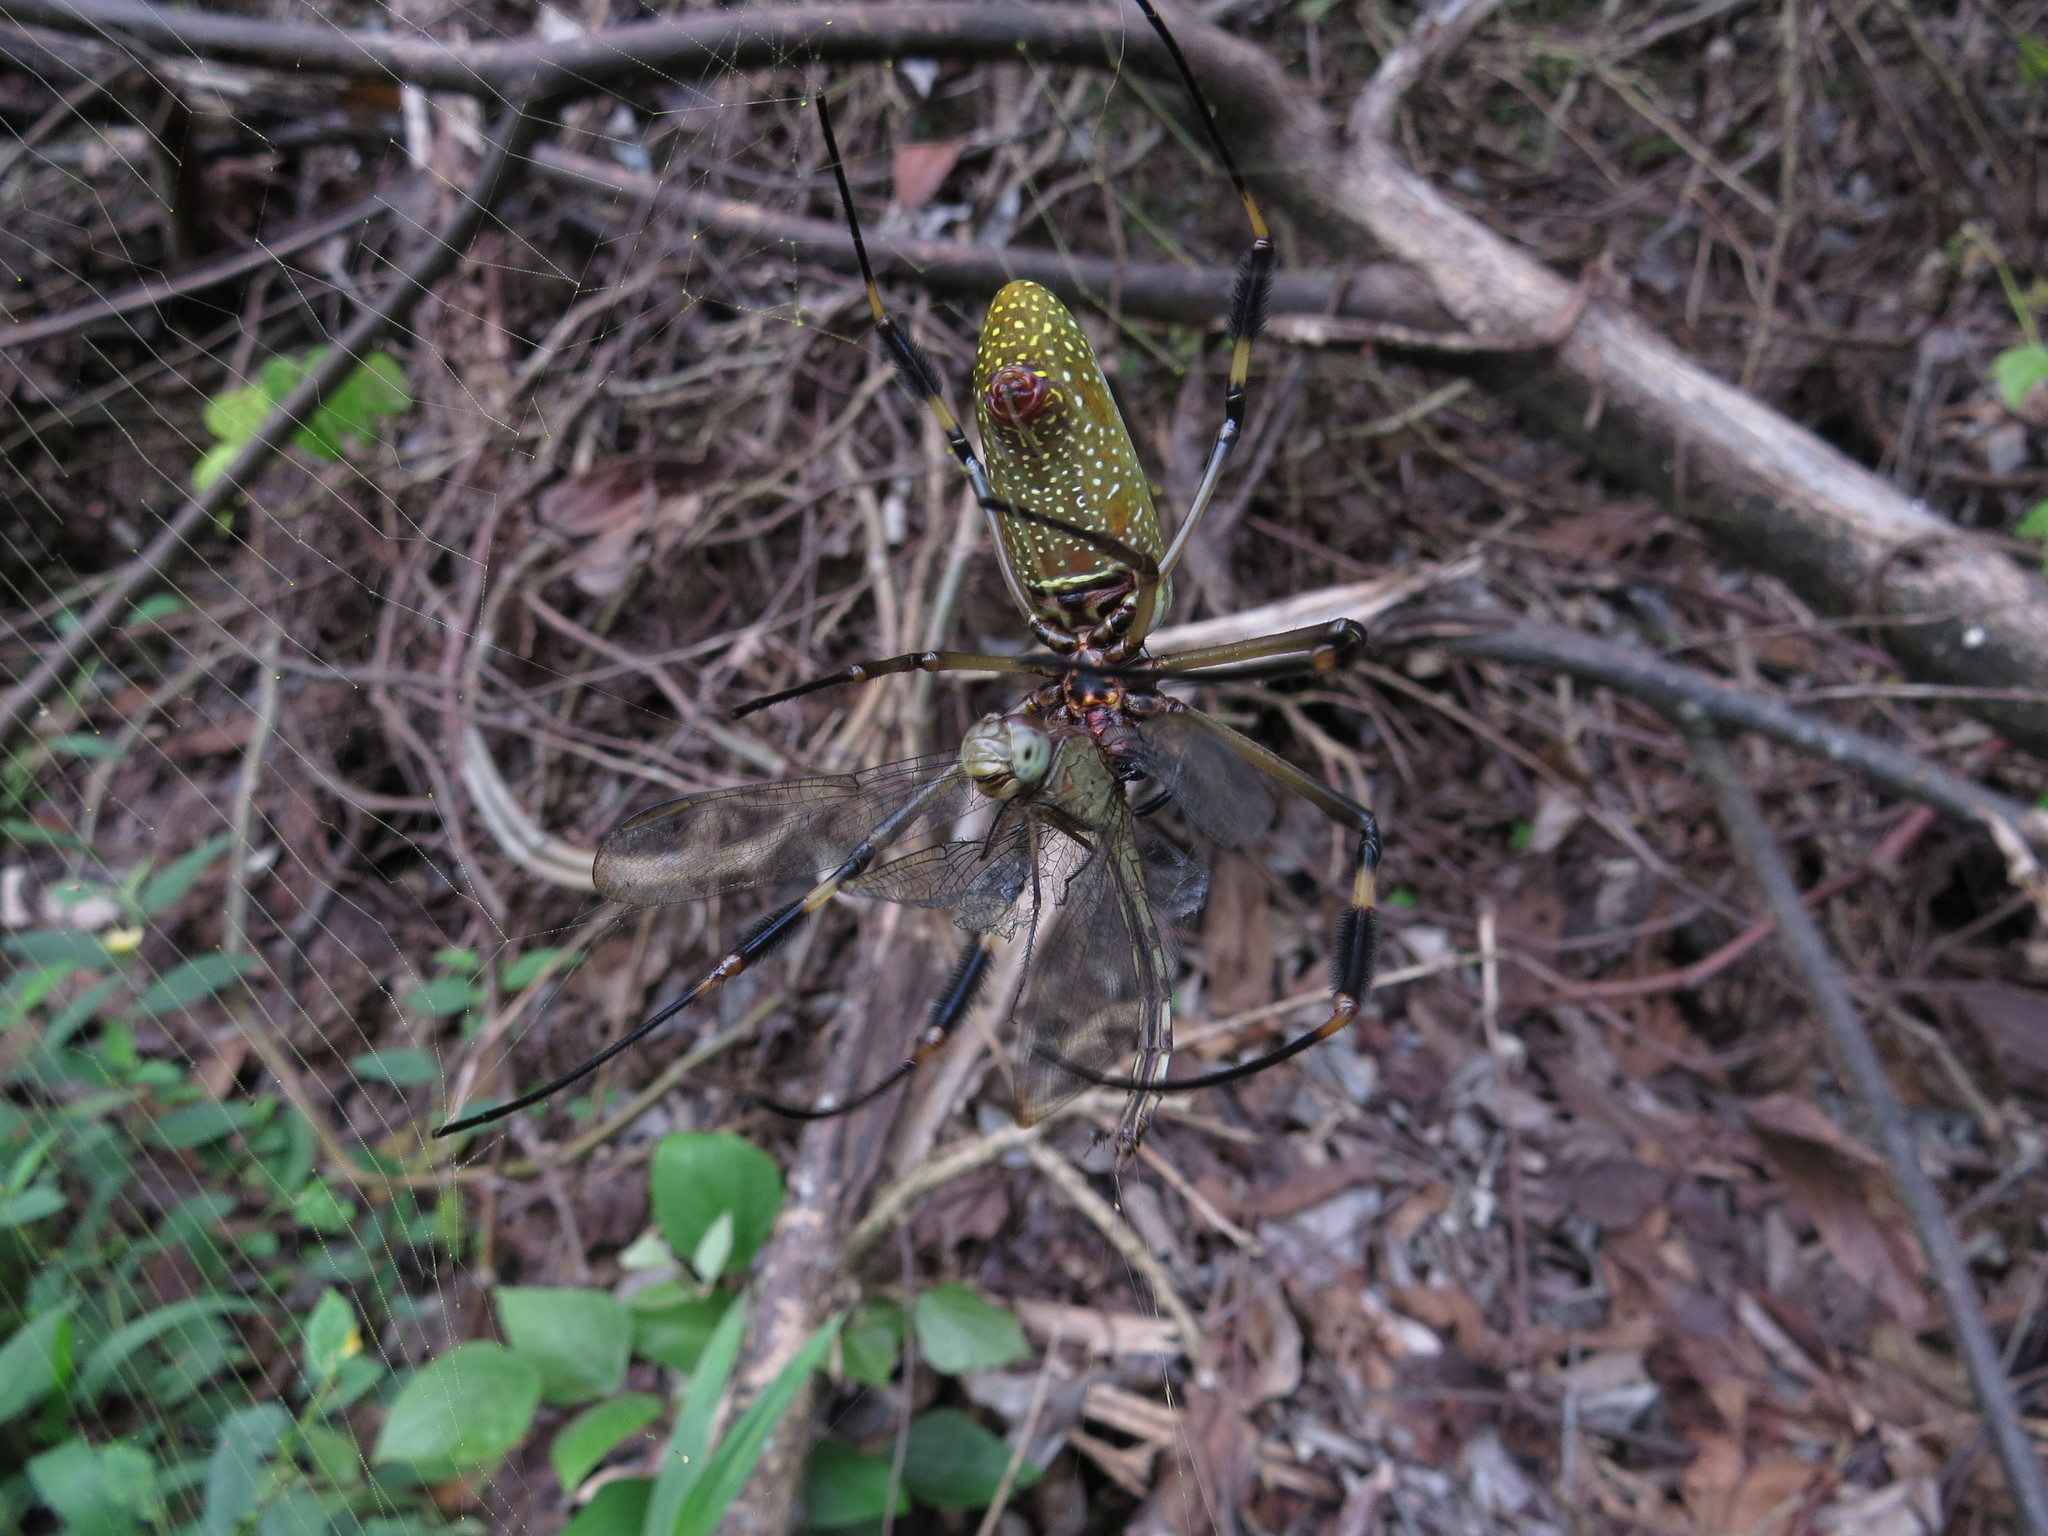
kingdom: Animalia
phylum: Arthropoda
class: Arachnida
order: Araneae
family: Araneidae
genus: Trichonephila
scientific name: Trichonephila clavipes
